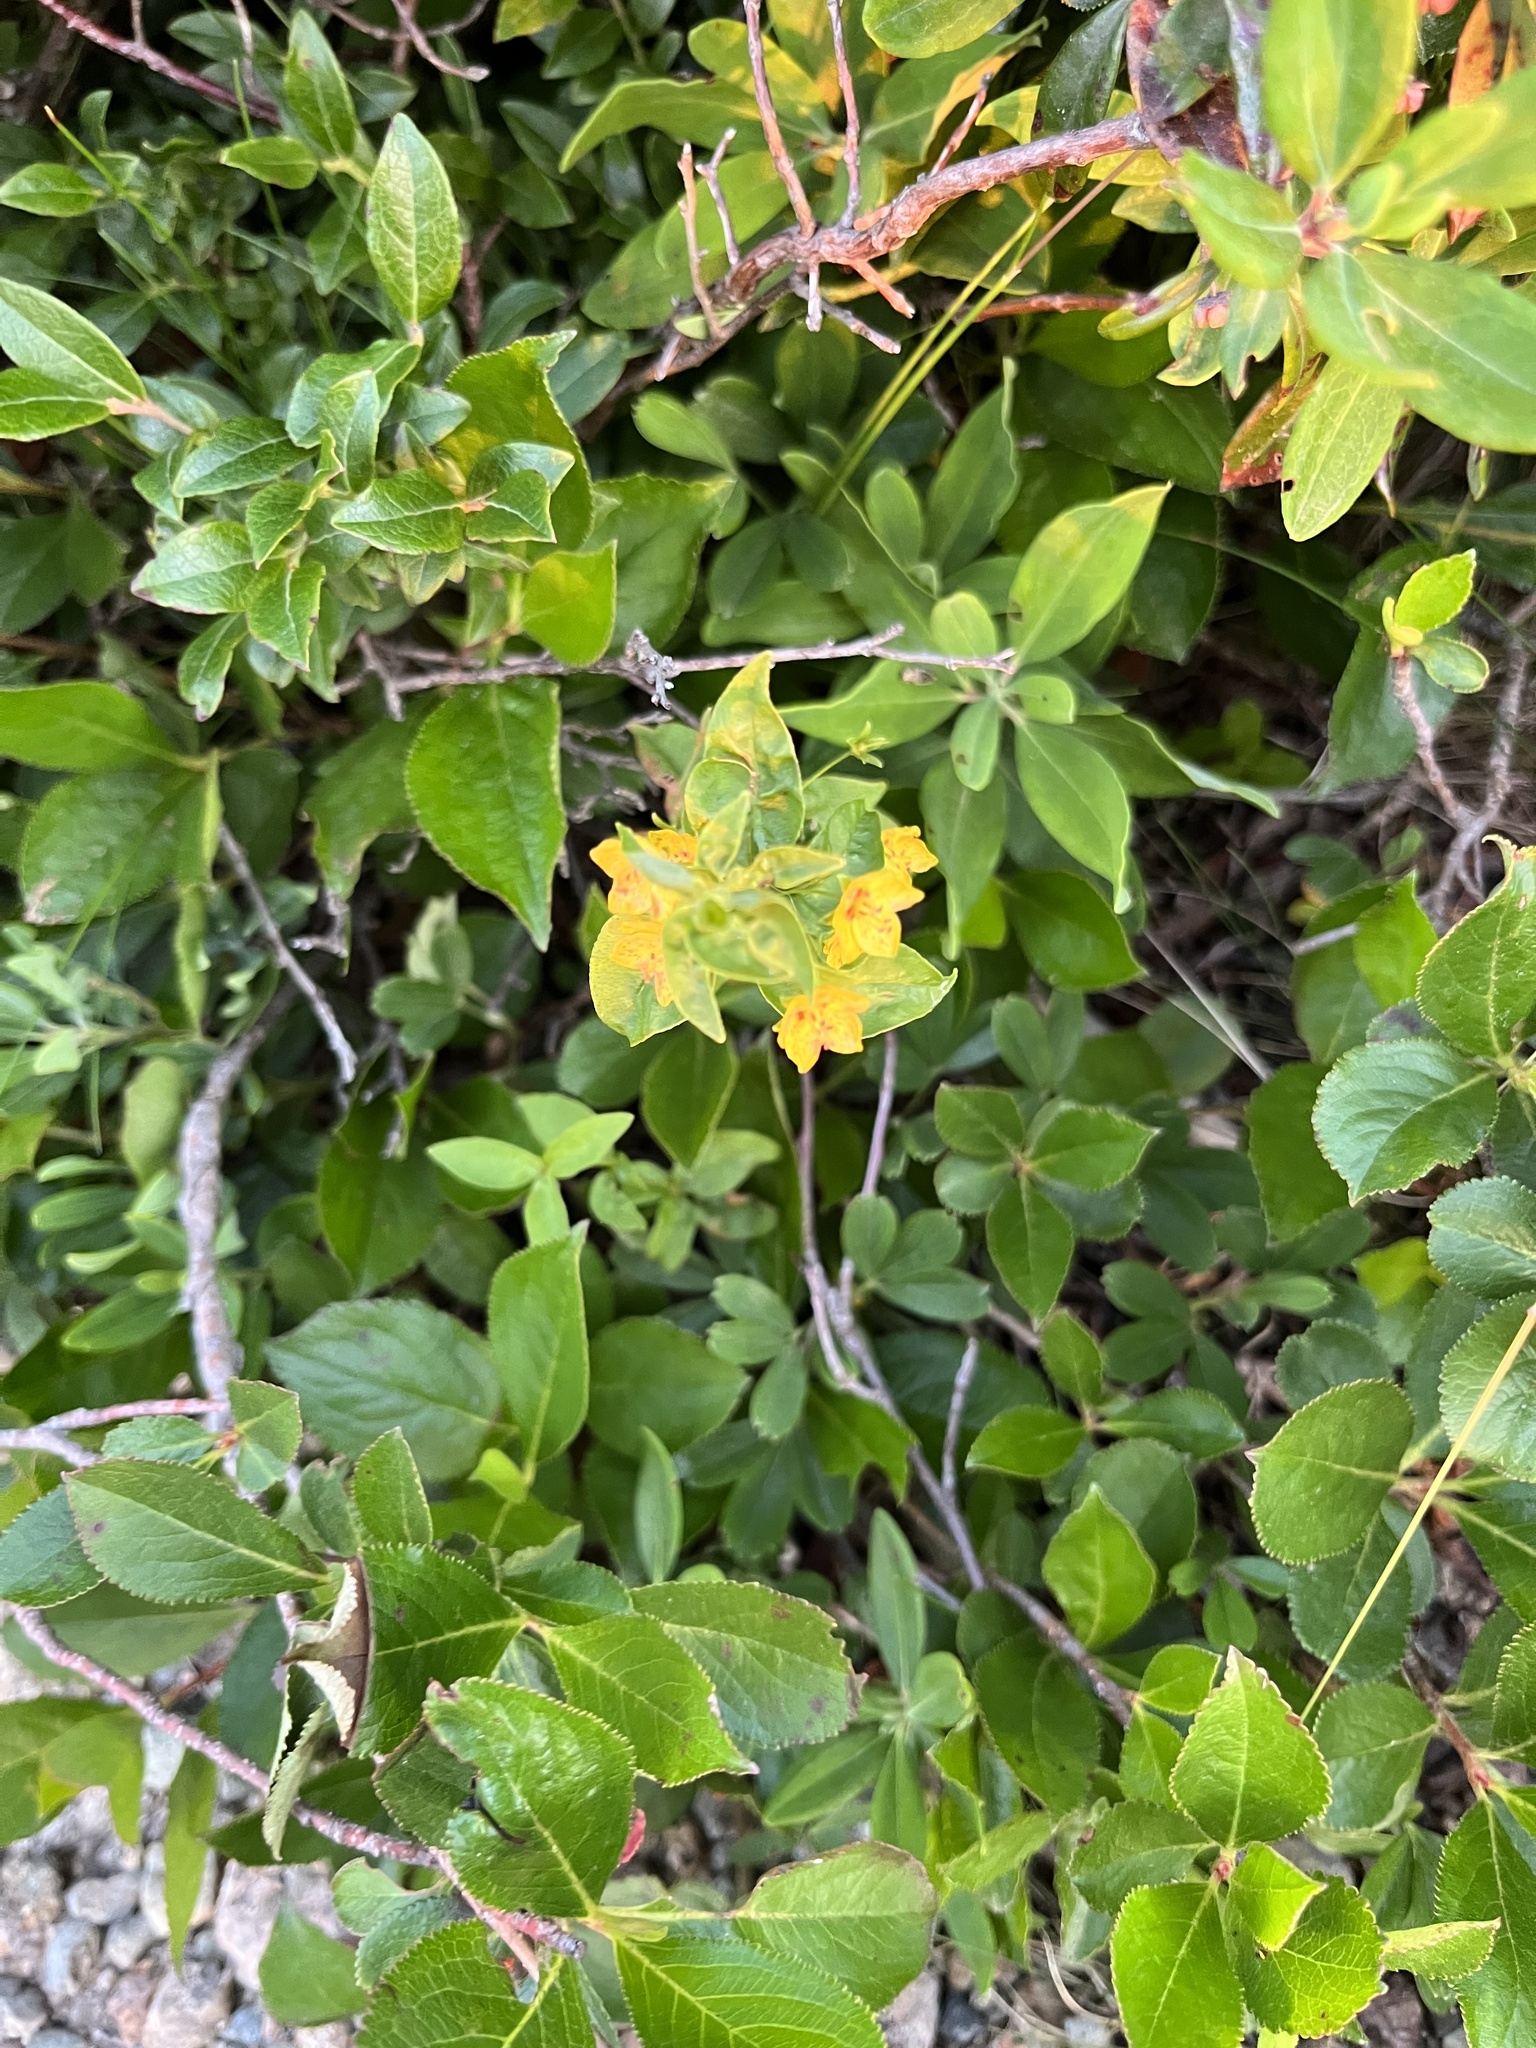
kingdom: Plantae
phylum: Tracheophyta
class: Magnoliopsida
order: Ericales
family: Primulaceae
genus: Lysimachia
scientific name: Lysimachia quadrifolia
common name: Whorled loosestrife
